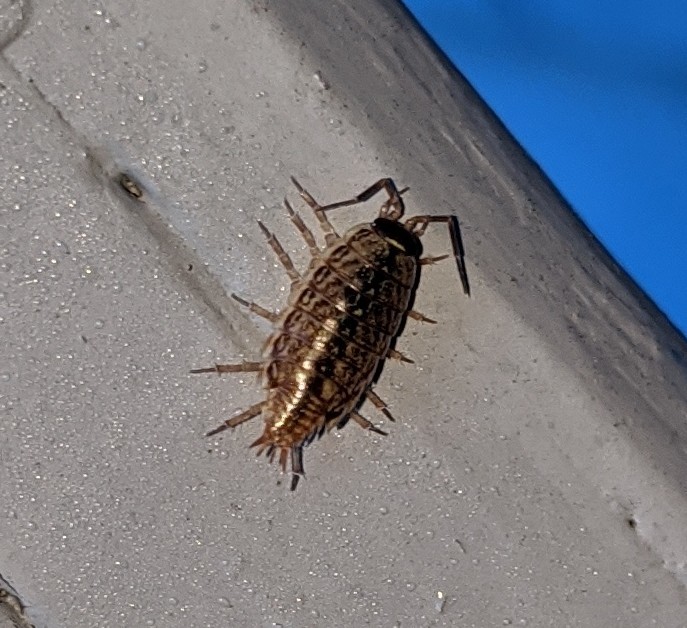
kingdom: Animalia
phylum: Arthropoda
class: Malacostraca
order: Isopoda
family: Philosciidae
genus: Philoscia
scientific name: Philoscia muscorum
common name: Common striped woodlouse
